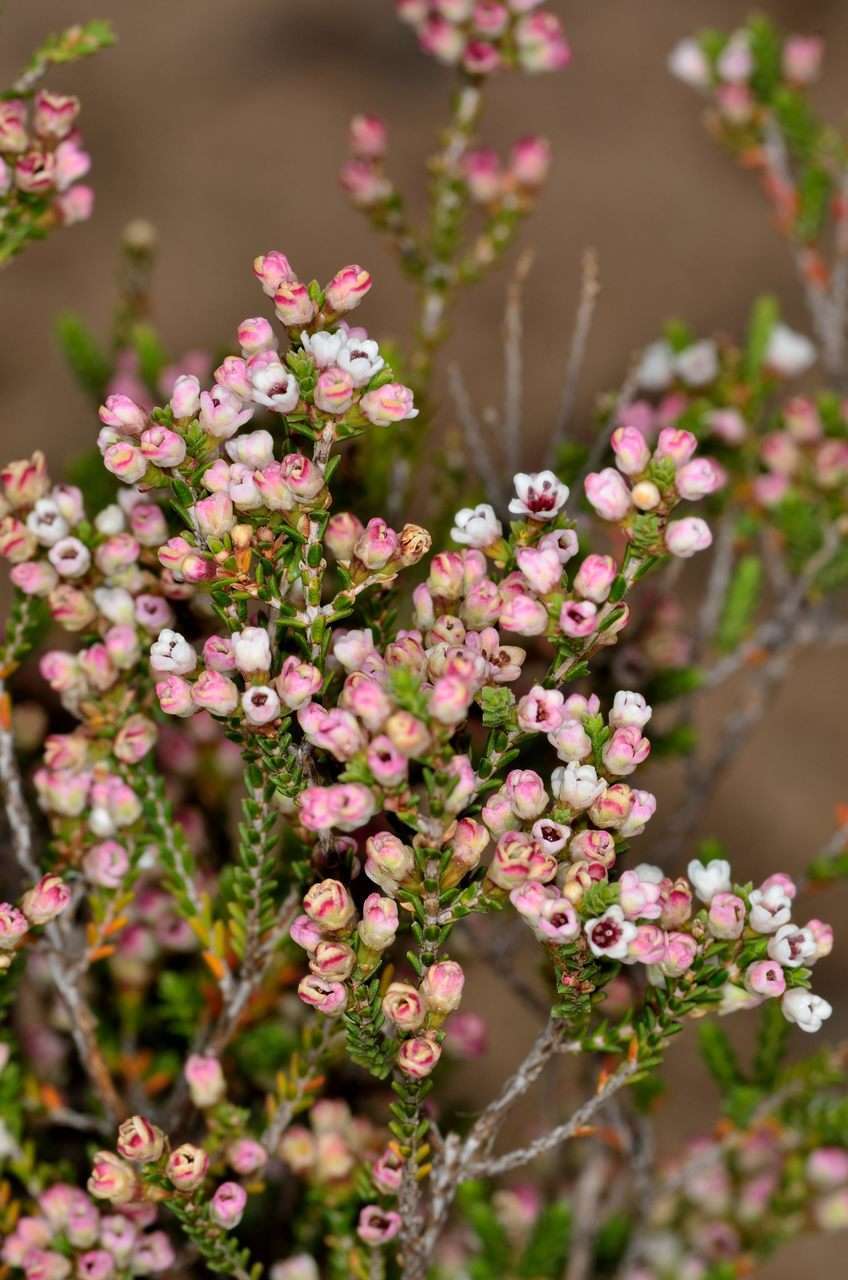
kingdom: Plantae
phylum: Tracheophyta
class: Magnoliopsida
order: Myrtales
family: Myrtaceae
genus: Micromyrtus
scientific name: Micromyrtus ciliata
